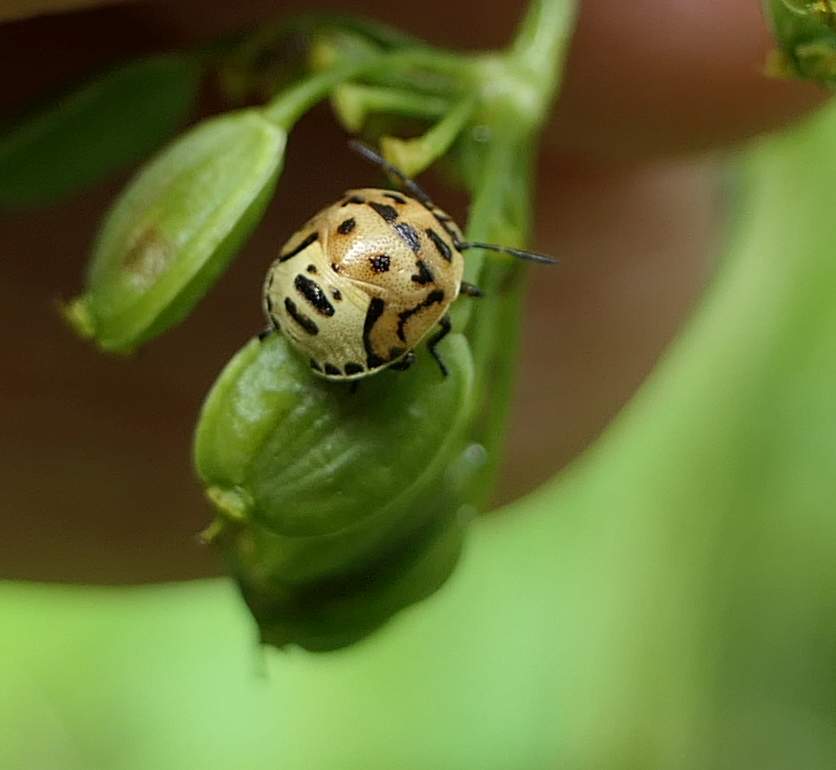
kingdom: Animalia
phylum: Arthropoda
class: Insecta
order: Hemiptera
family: Pentatomidae
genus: Cosmopepla
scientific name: Cosmopepla lintneriana
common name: Twice-stabbed stink bug
